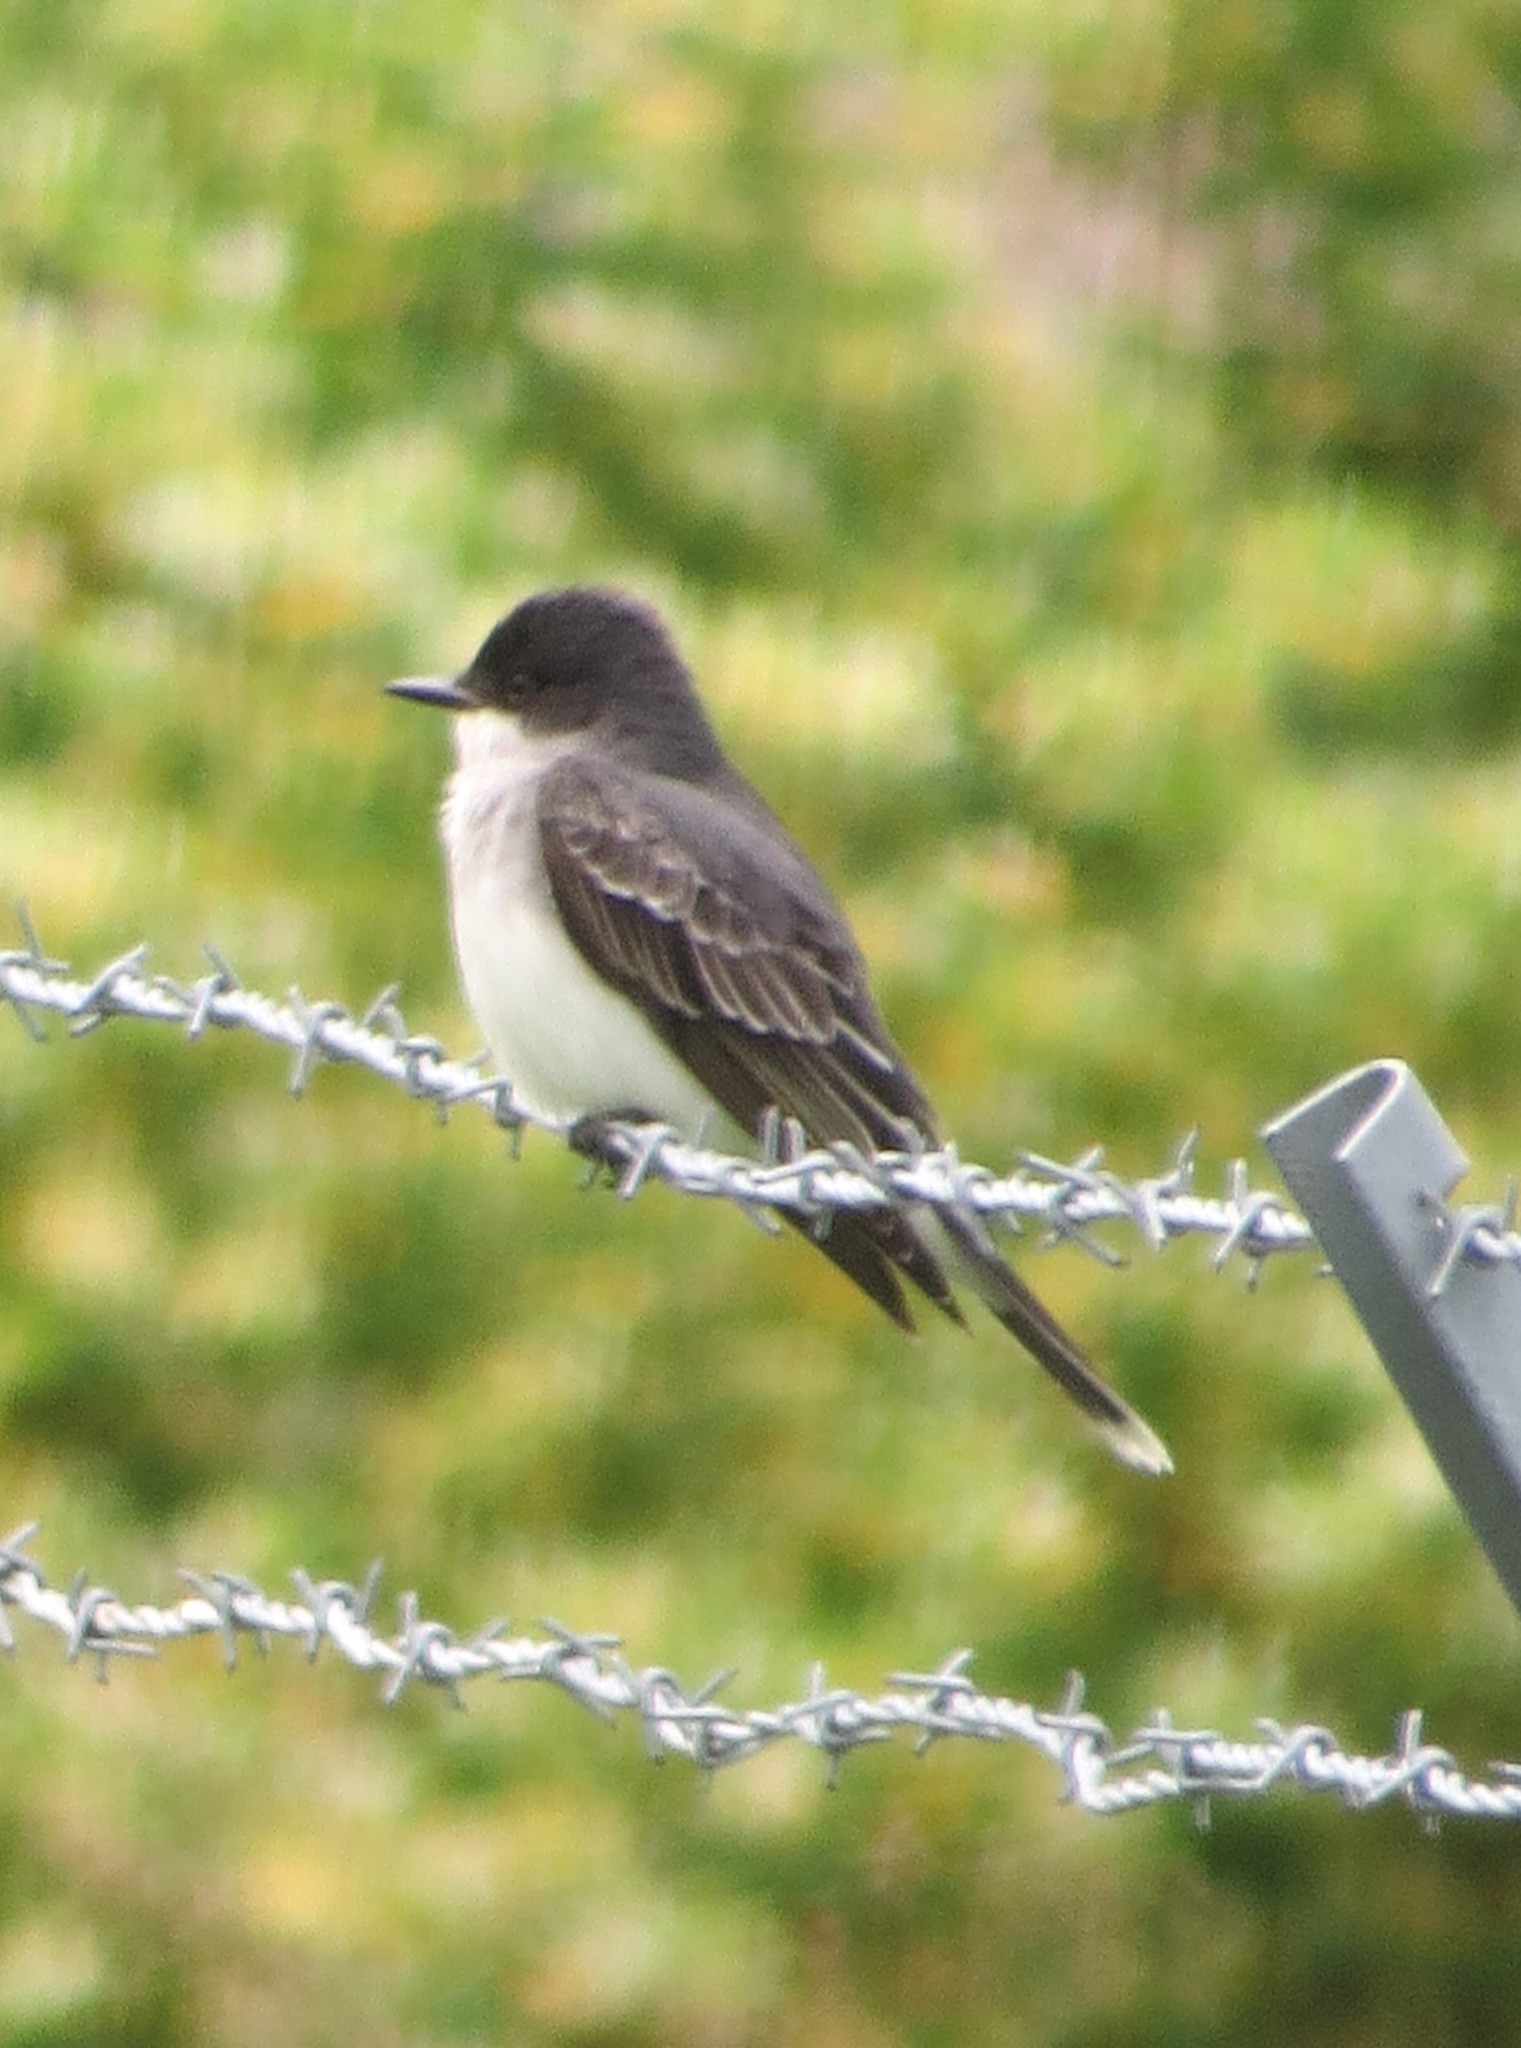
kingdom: Animalia
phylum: Chordata
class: Aves
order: Passeriformes
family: Tyrannidae
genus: Tyrannus
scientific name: Tyrannus tyrannus
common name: Eastern kingbird
